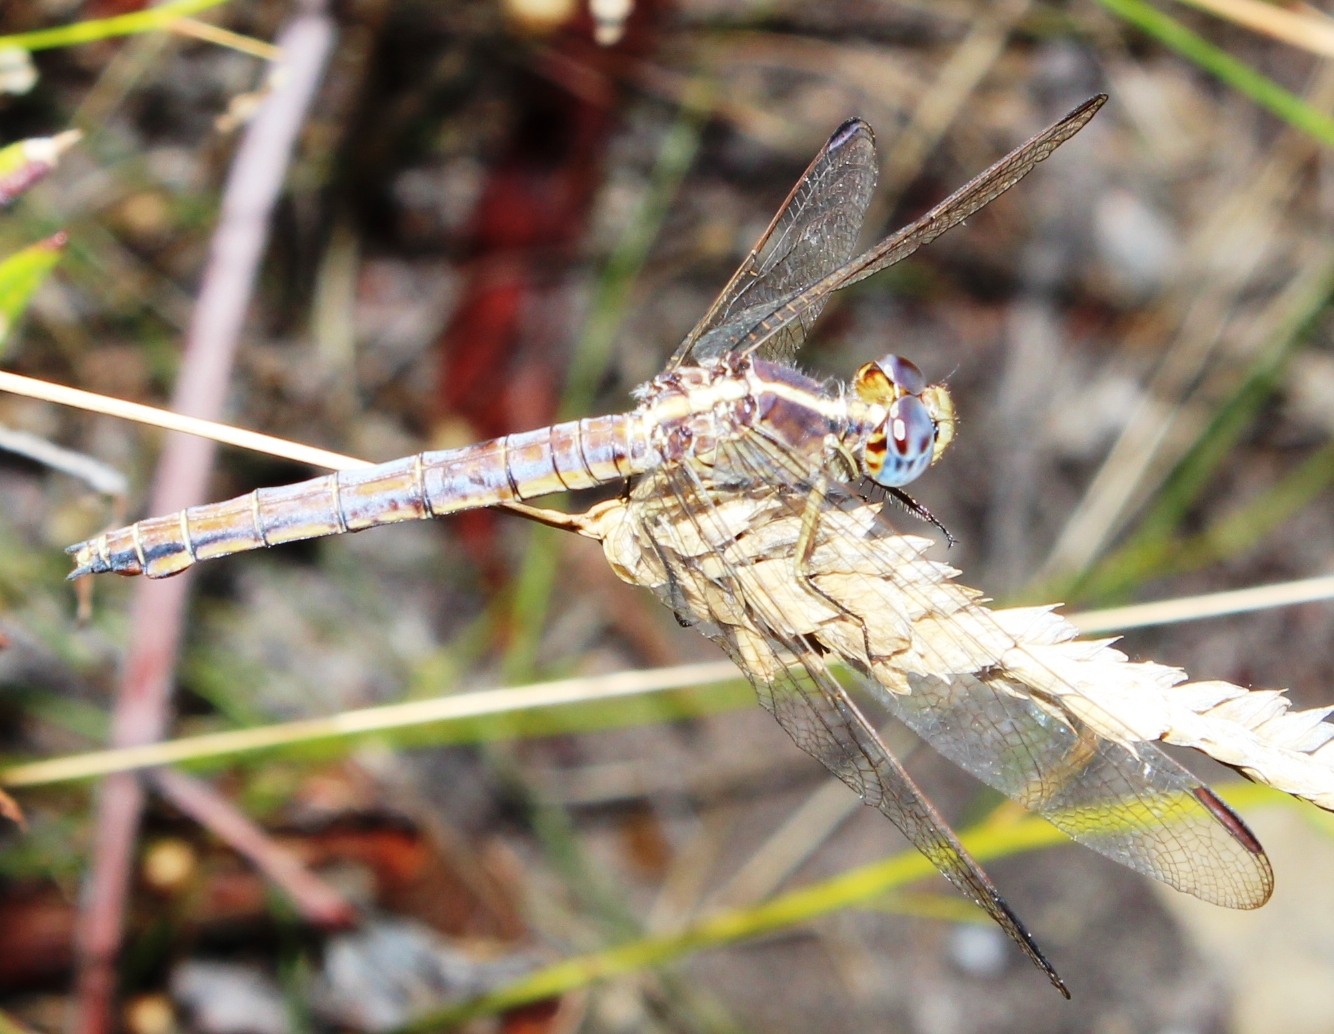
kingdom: Animalia
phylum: Arthropoda
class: Insecta
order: Odonata
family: Libellulidae
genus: Orthetrum
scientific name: Orthetrum julia
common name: Julia skimmer
